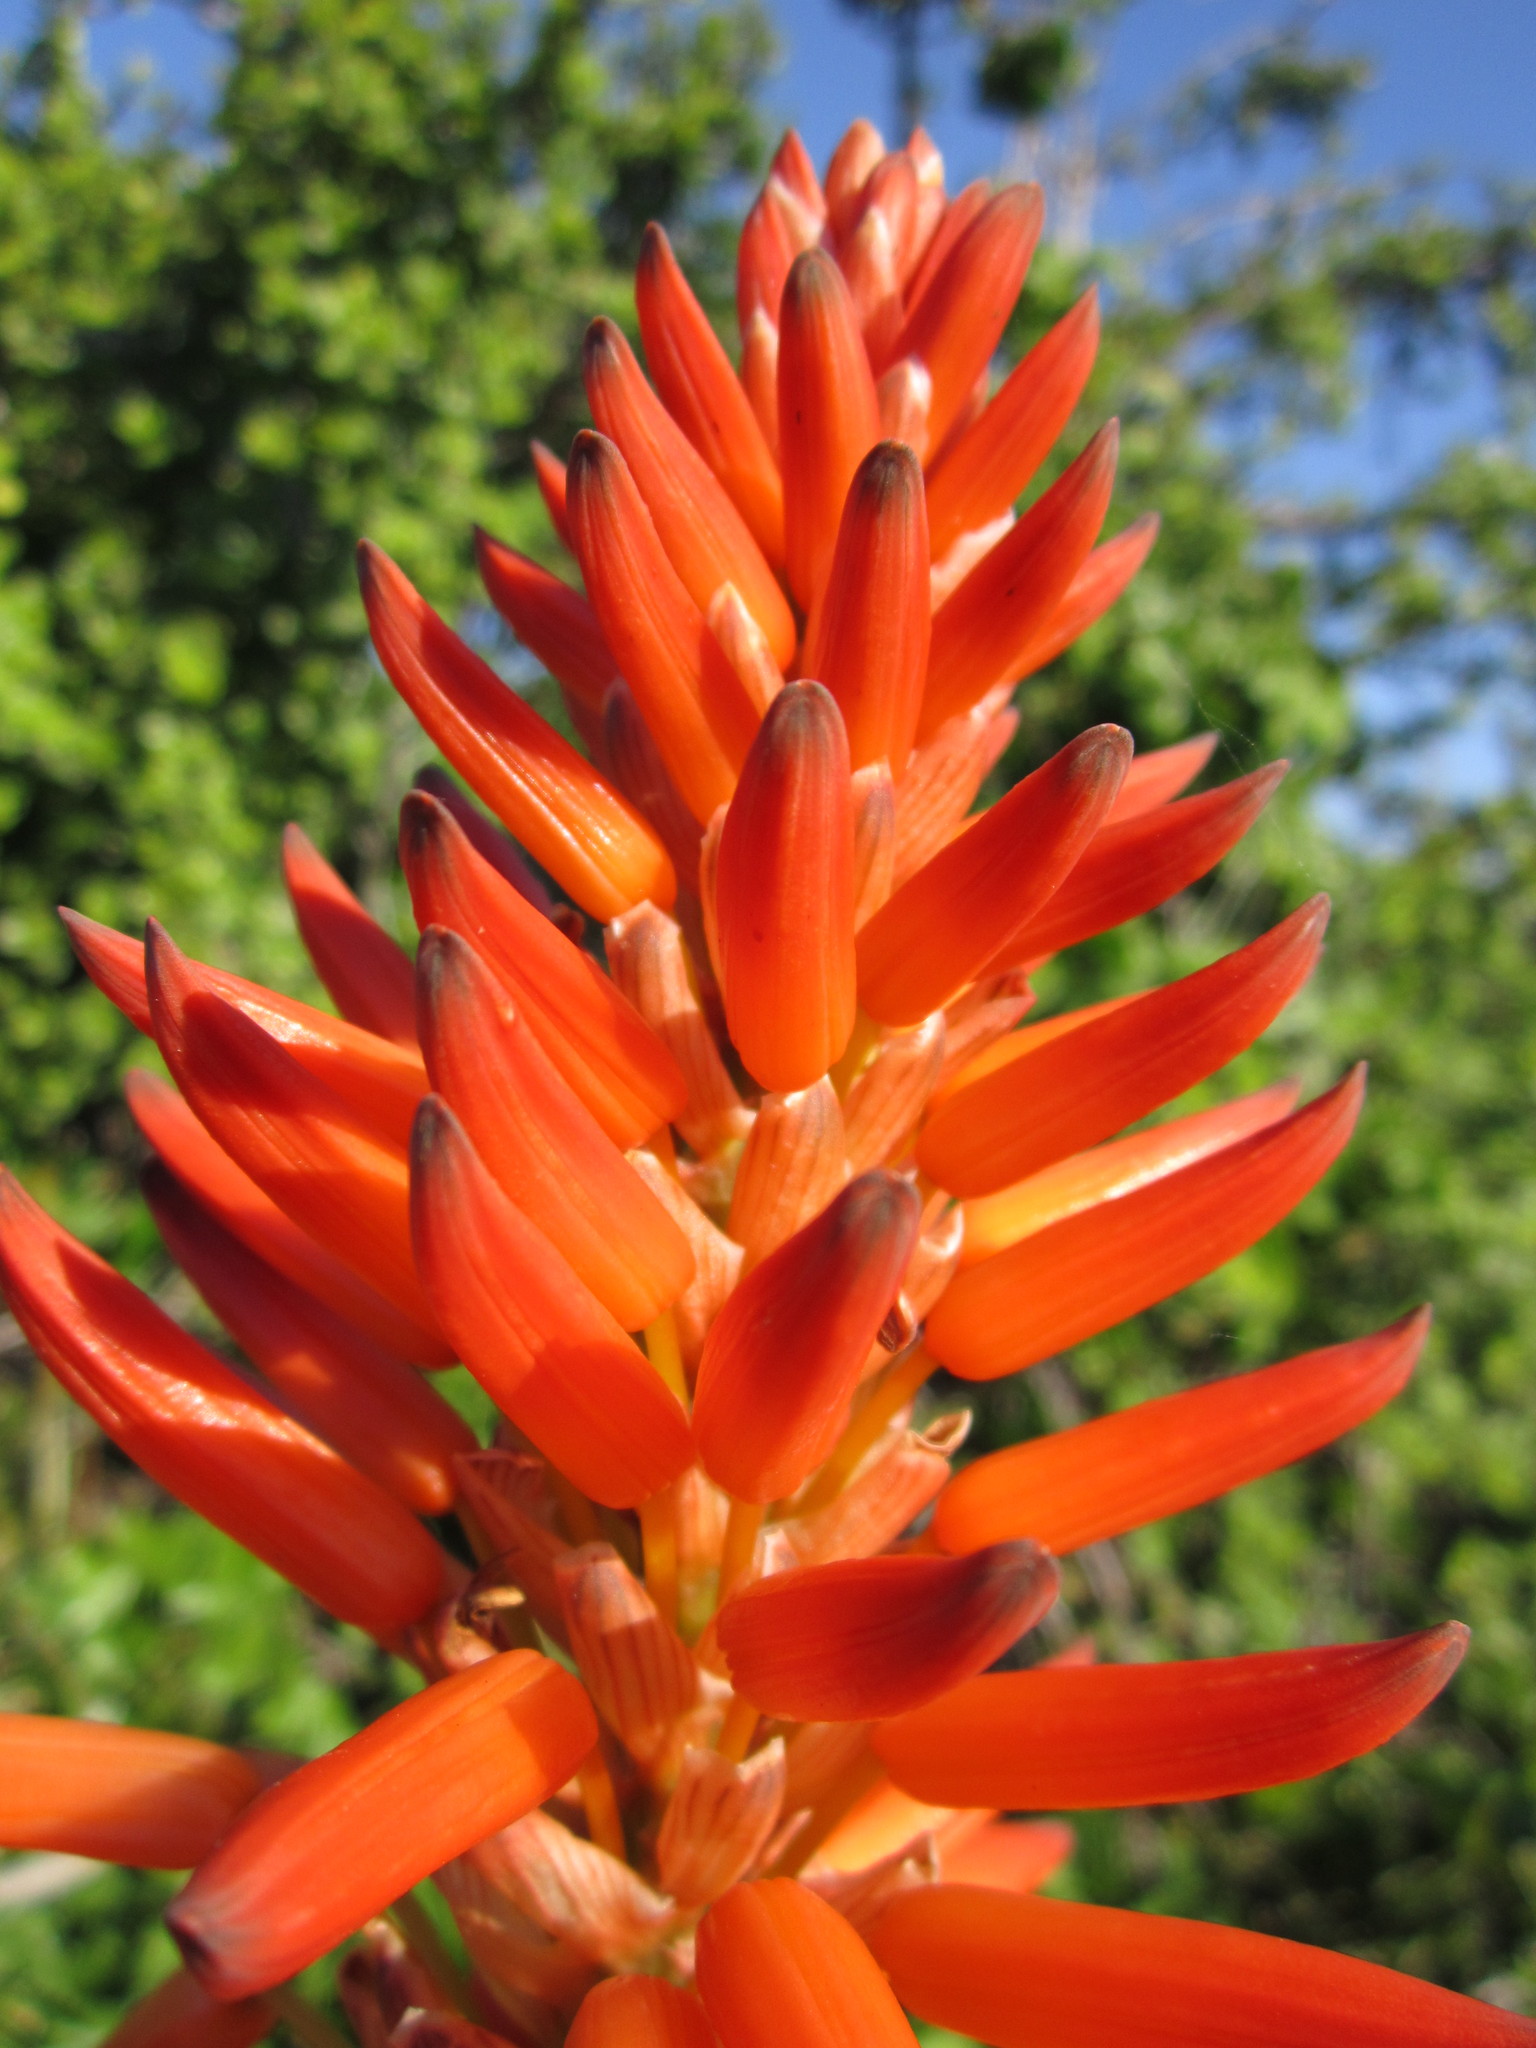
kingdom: Plantae
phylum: Tracheophyta
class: Liliopsida
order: Asparagales
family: Asphodelaceae
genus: Aloe
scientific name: Aloe pluridens
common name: French aloe
